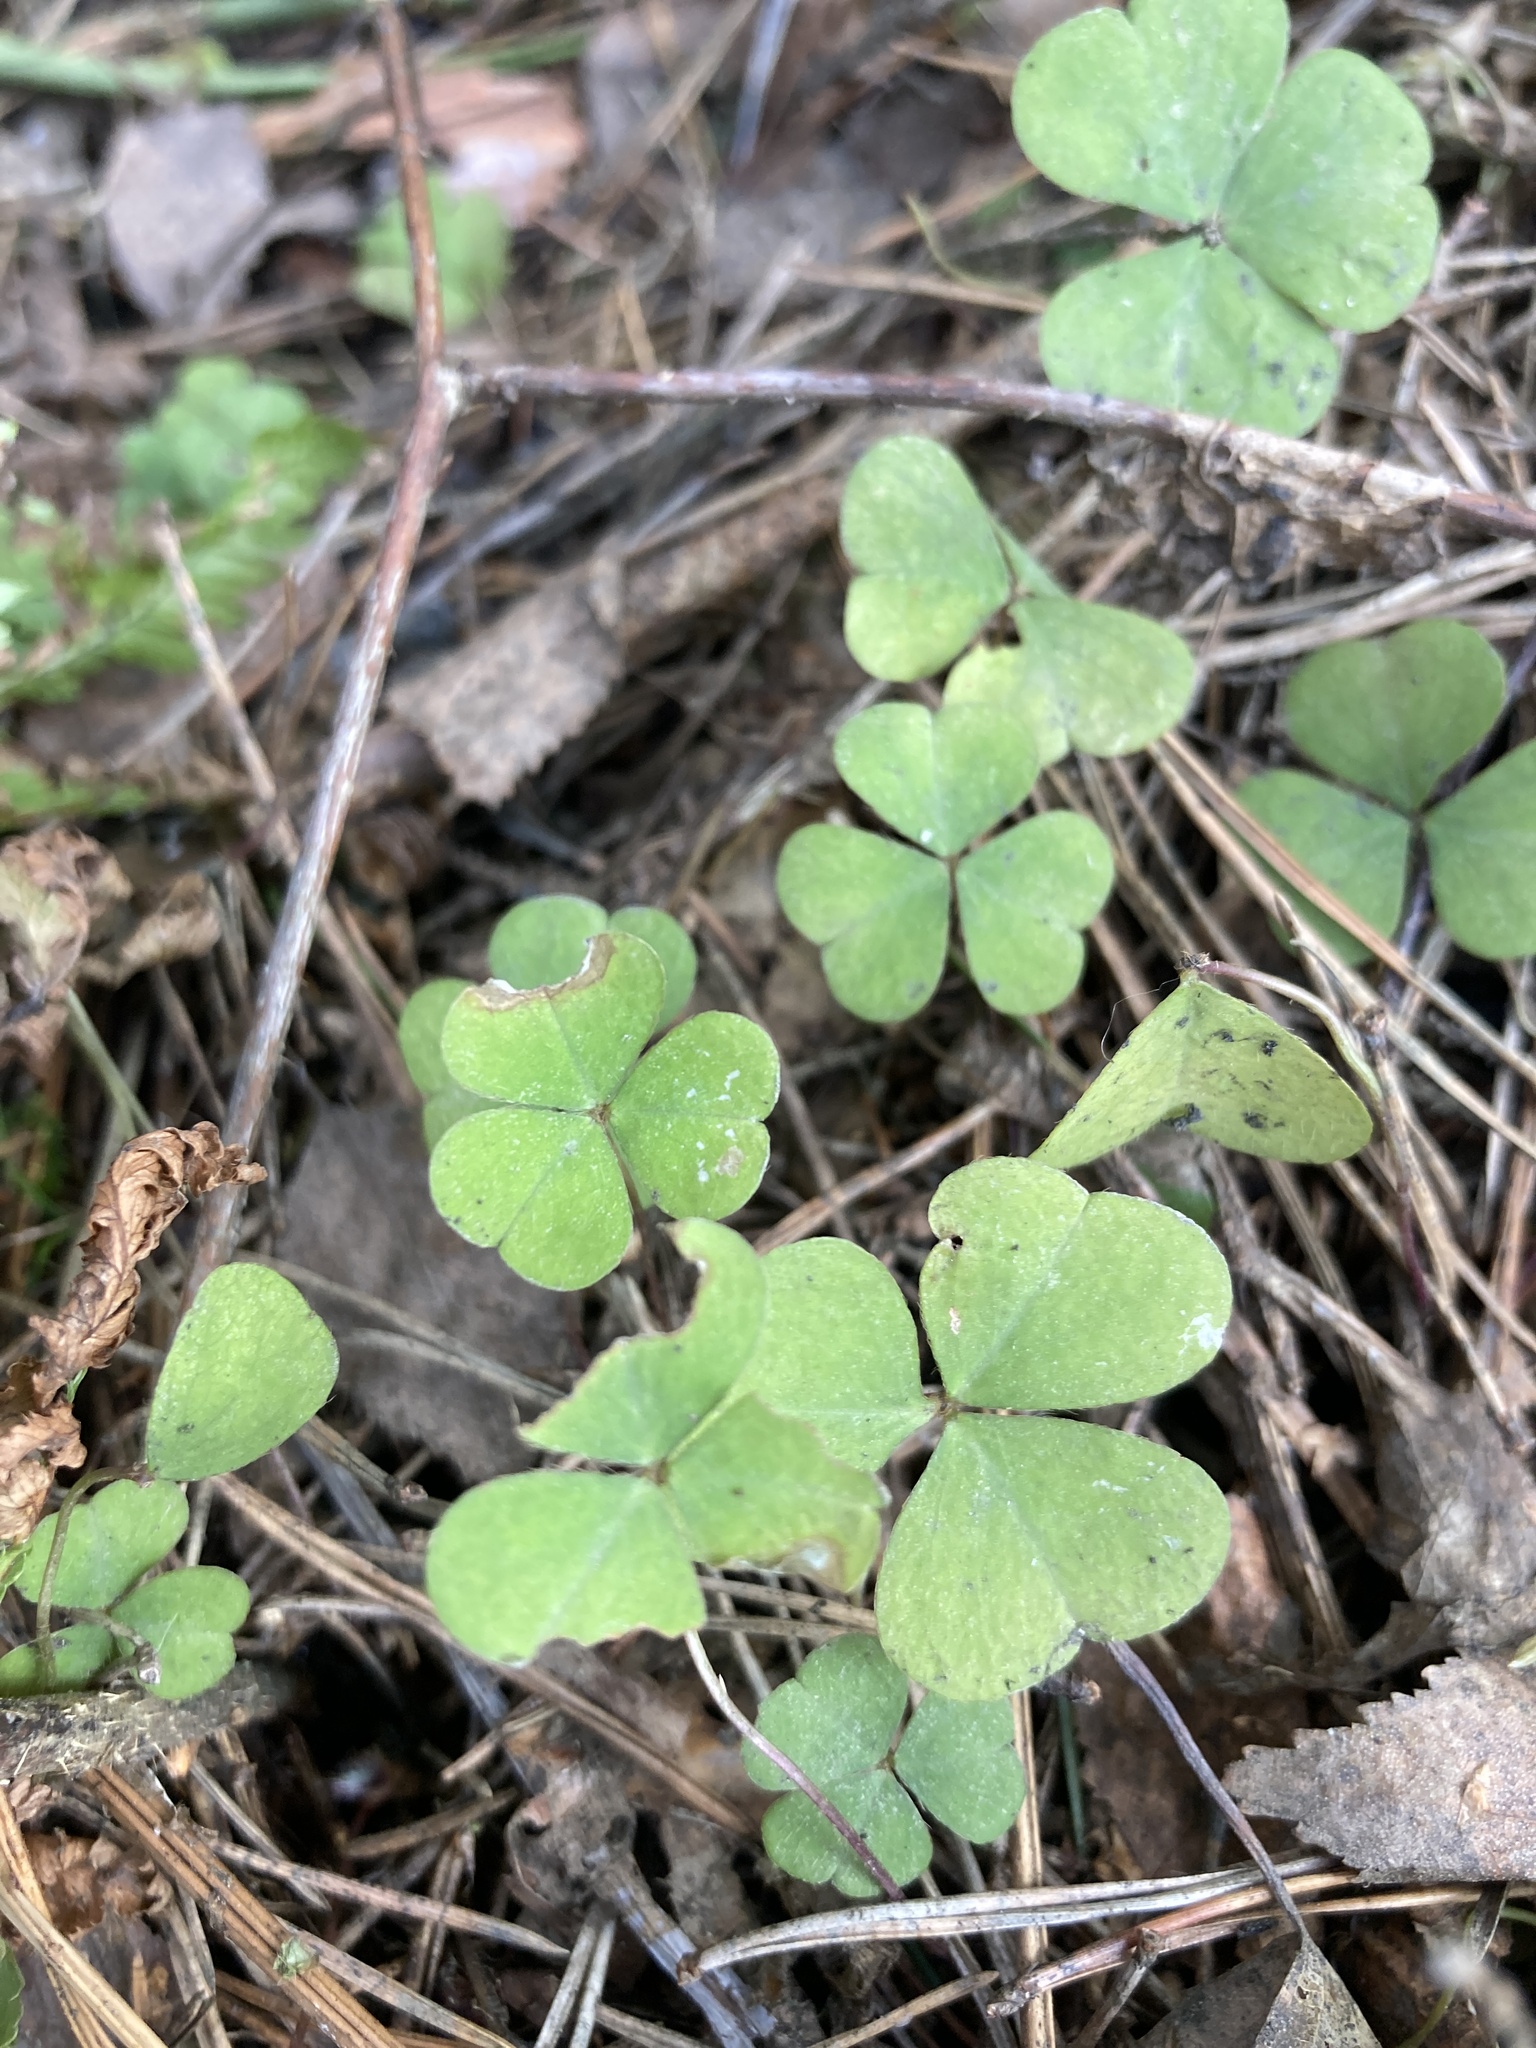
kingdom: Plantae
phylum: Tracheophyta
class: Magnoliopsida
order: Oxalidales
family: Oxalidaceae
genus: Oxalis
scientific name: Oxalis acetosella
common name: Wood-sorrel
